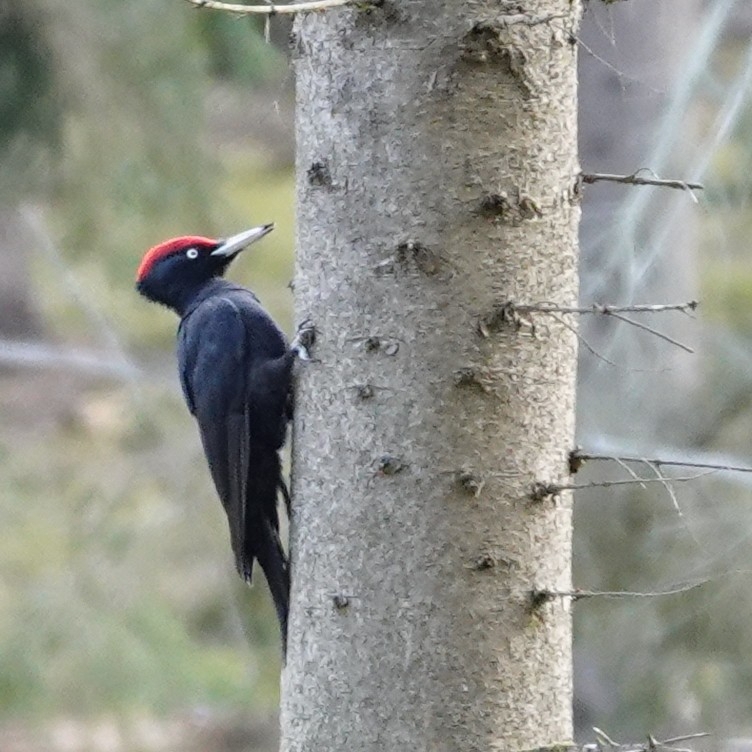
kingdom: Animalia
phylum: Chordata
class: Aves
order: Piciformes
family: Picidae
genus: Dryocopus
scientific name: Dryocopus martius
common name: Black woodpecker
